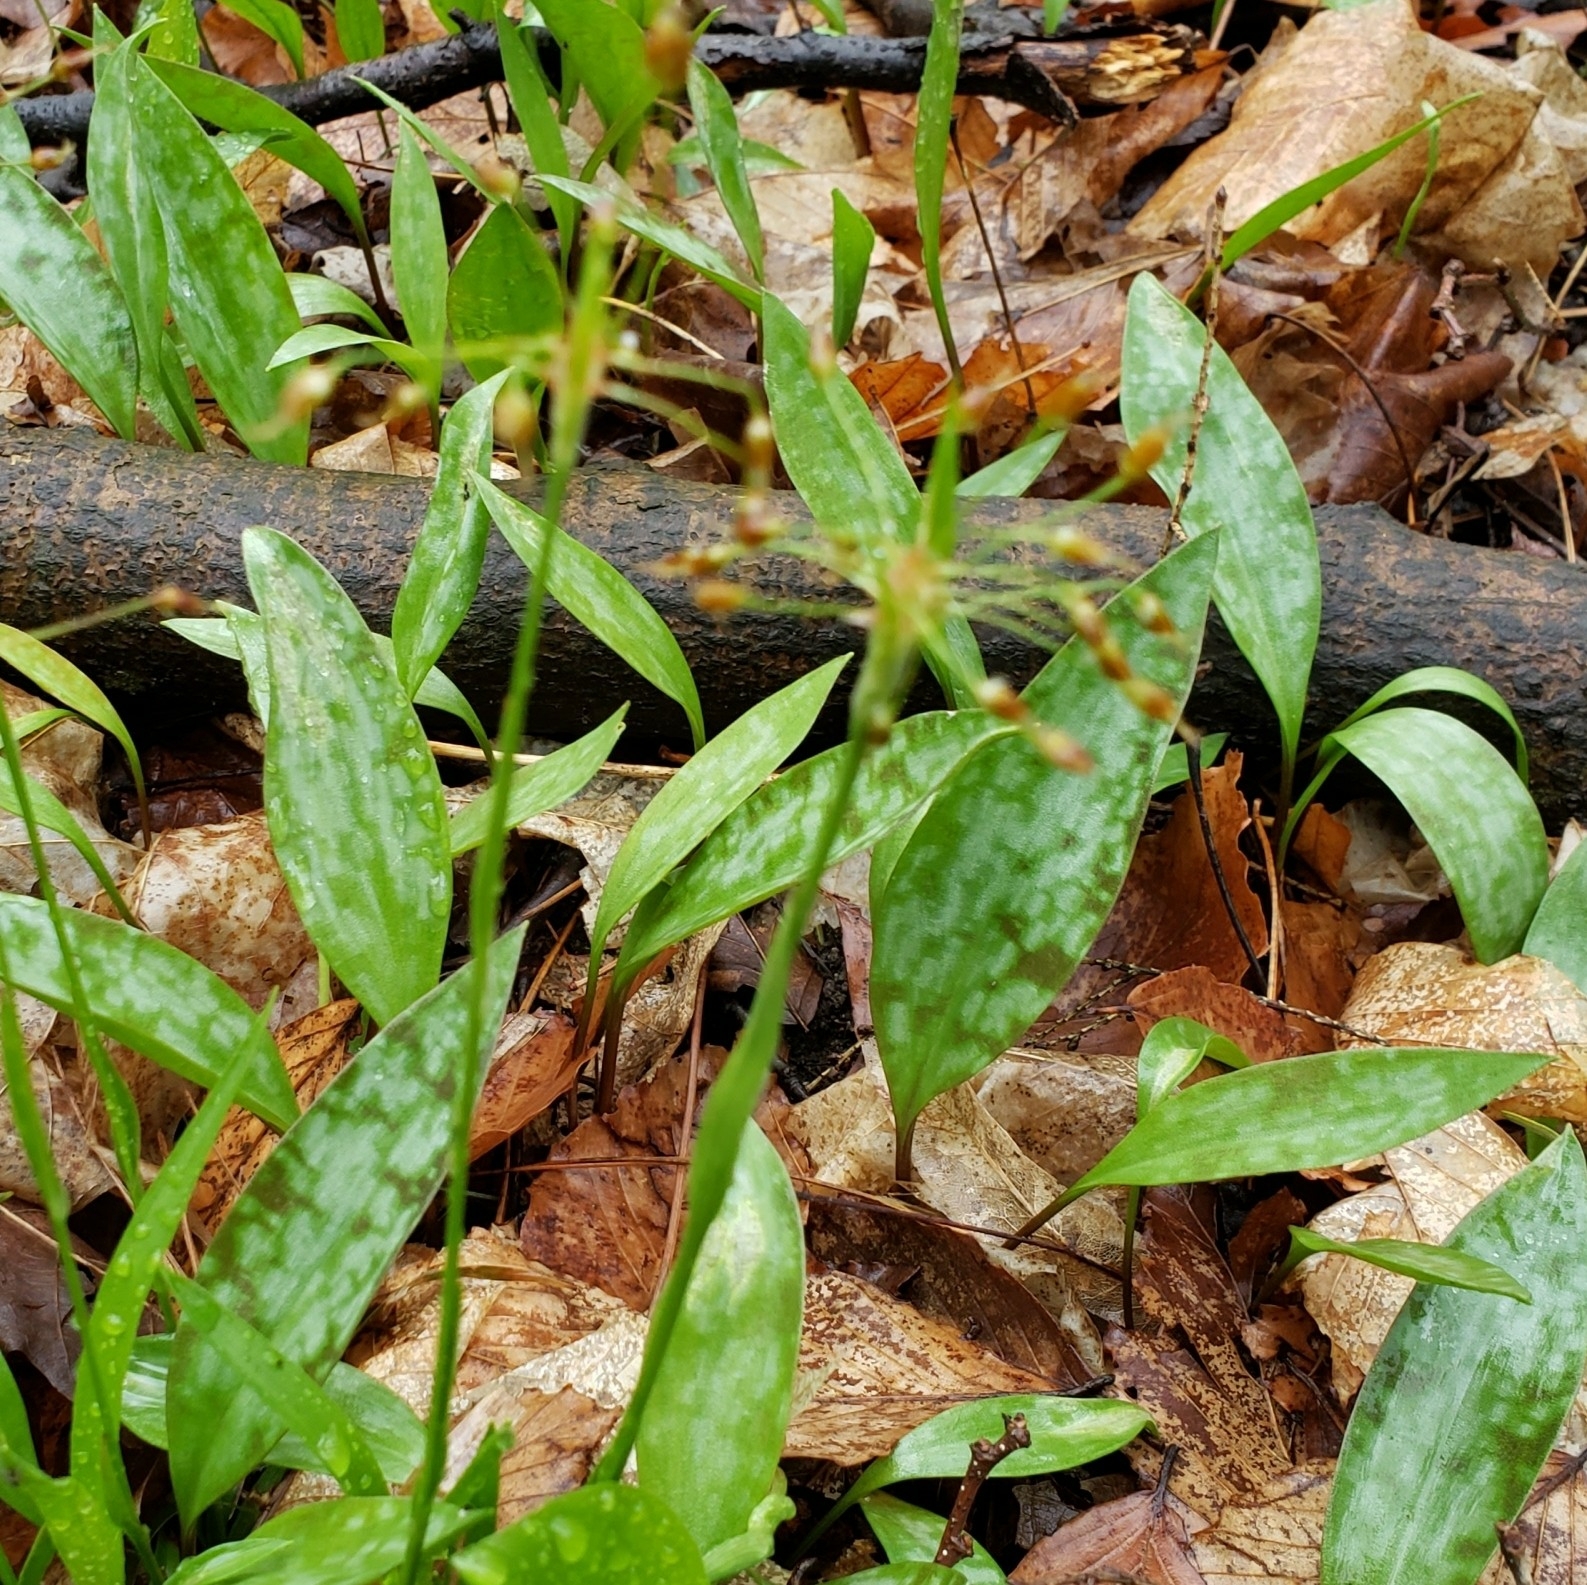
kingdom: Plantae
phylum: Tracheophyta
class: Liliopsida
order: Poales
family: Juncaceae
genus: Luzula
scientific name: Luzula acuminata
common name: Hairy woodrush
